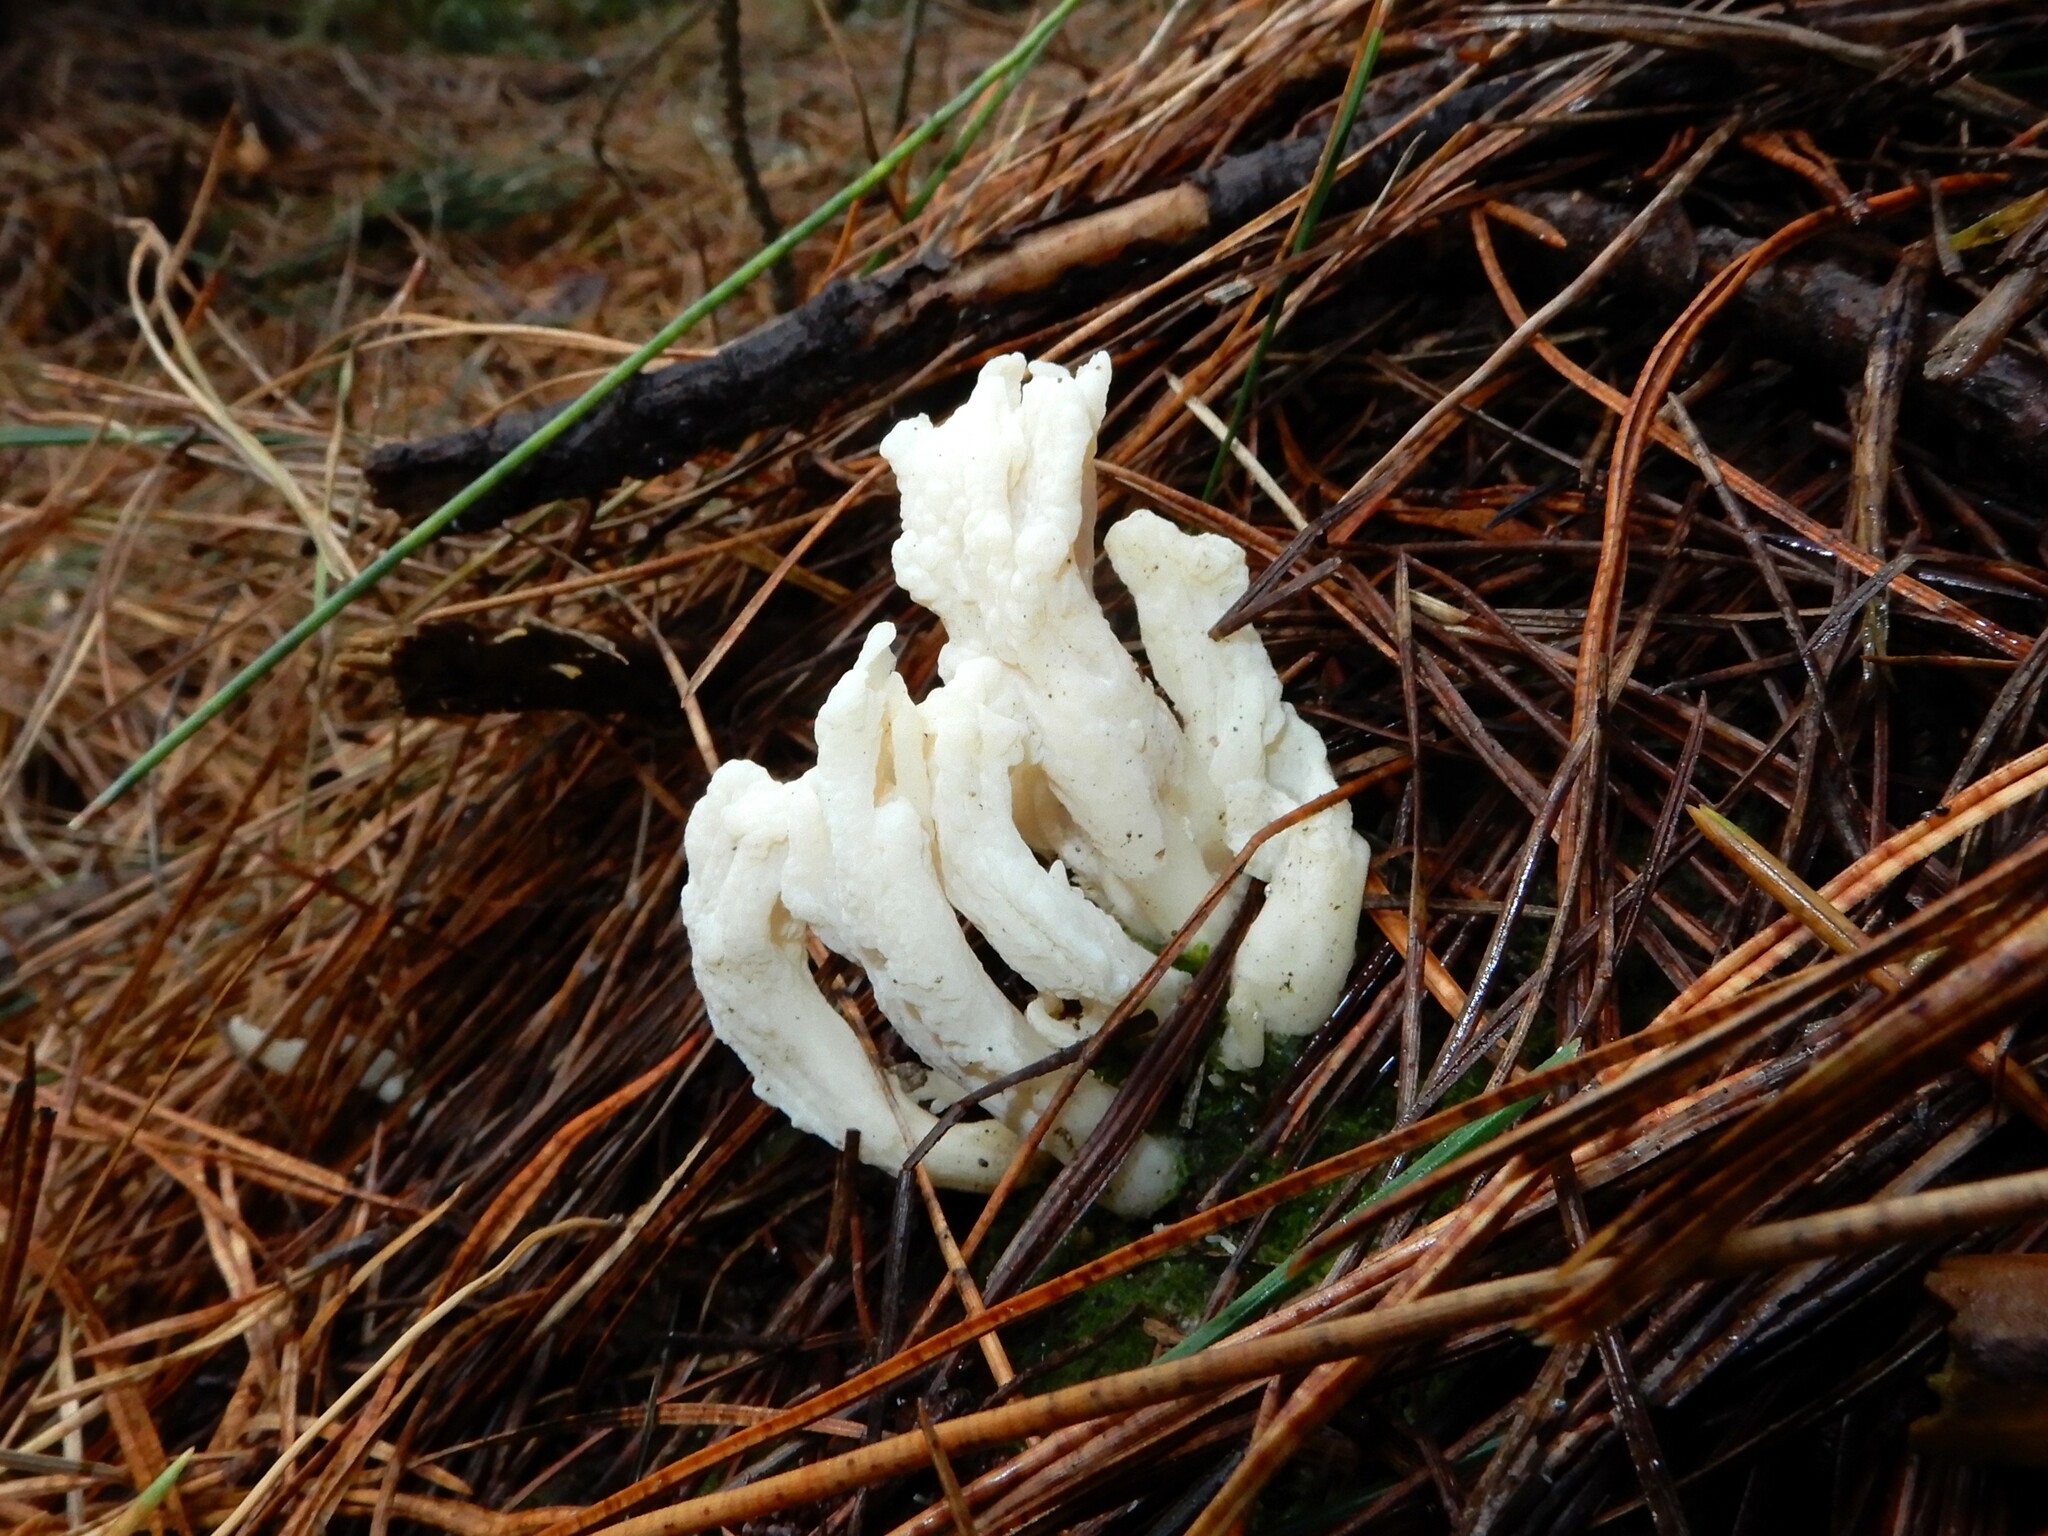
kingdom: Fungi
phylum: Basidiomycota
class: Agaricomycetes
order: Cantharellales
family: Hydnaceae
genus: Clavulina
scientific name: Clavulina rugosa
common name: Wrinkled club
